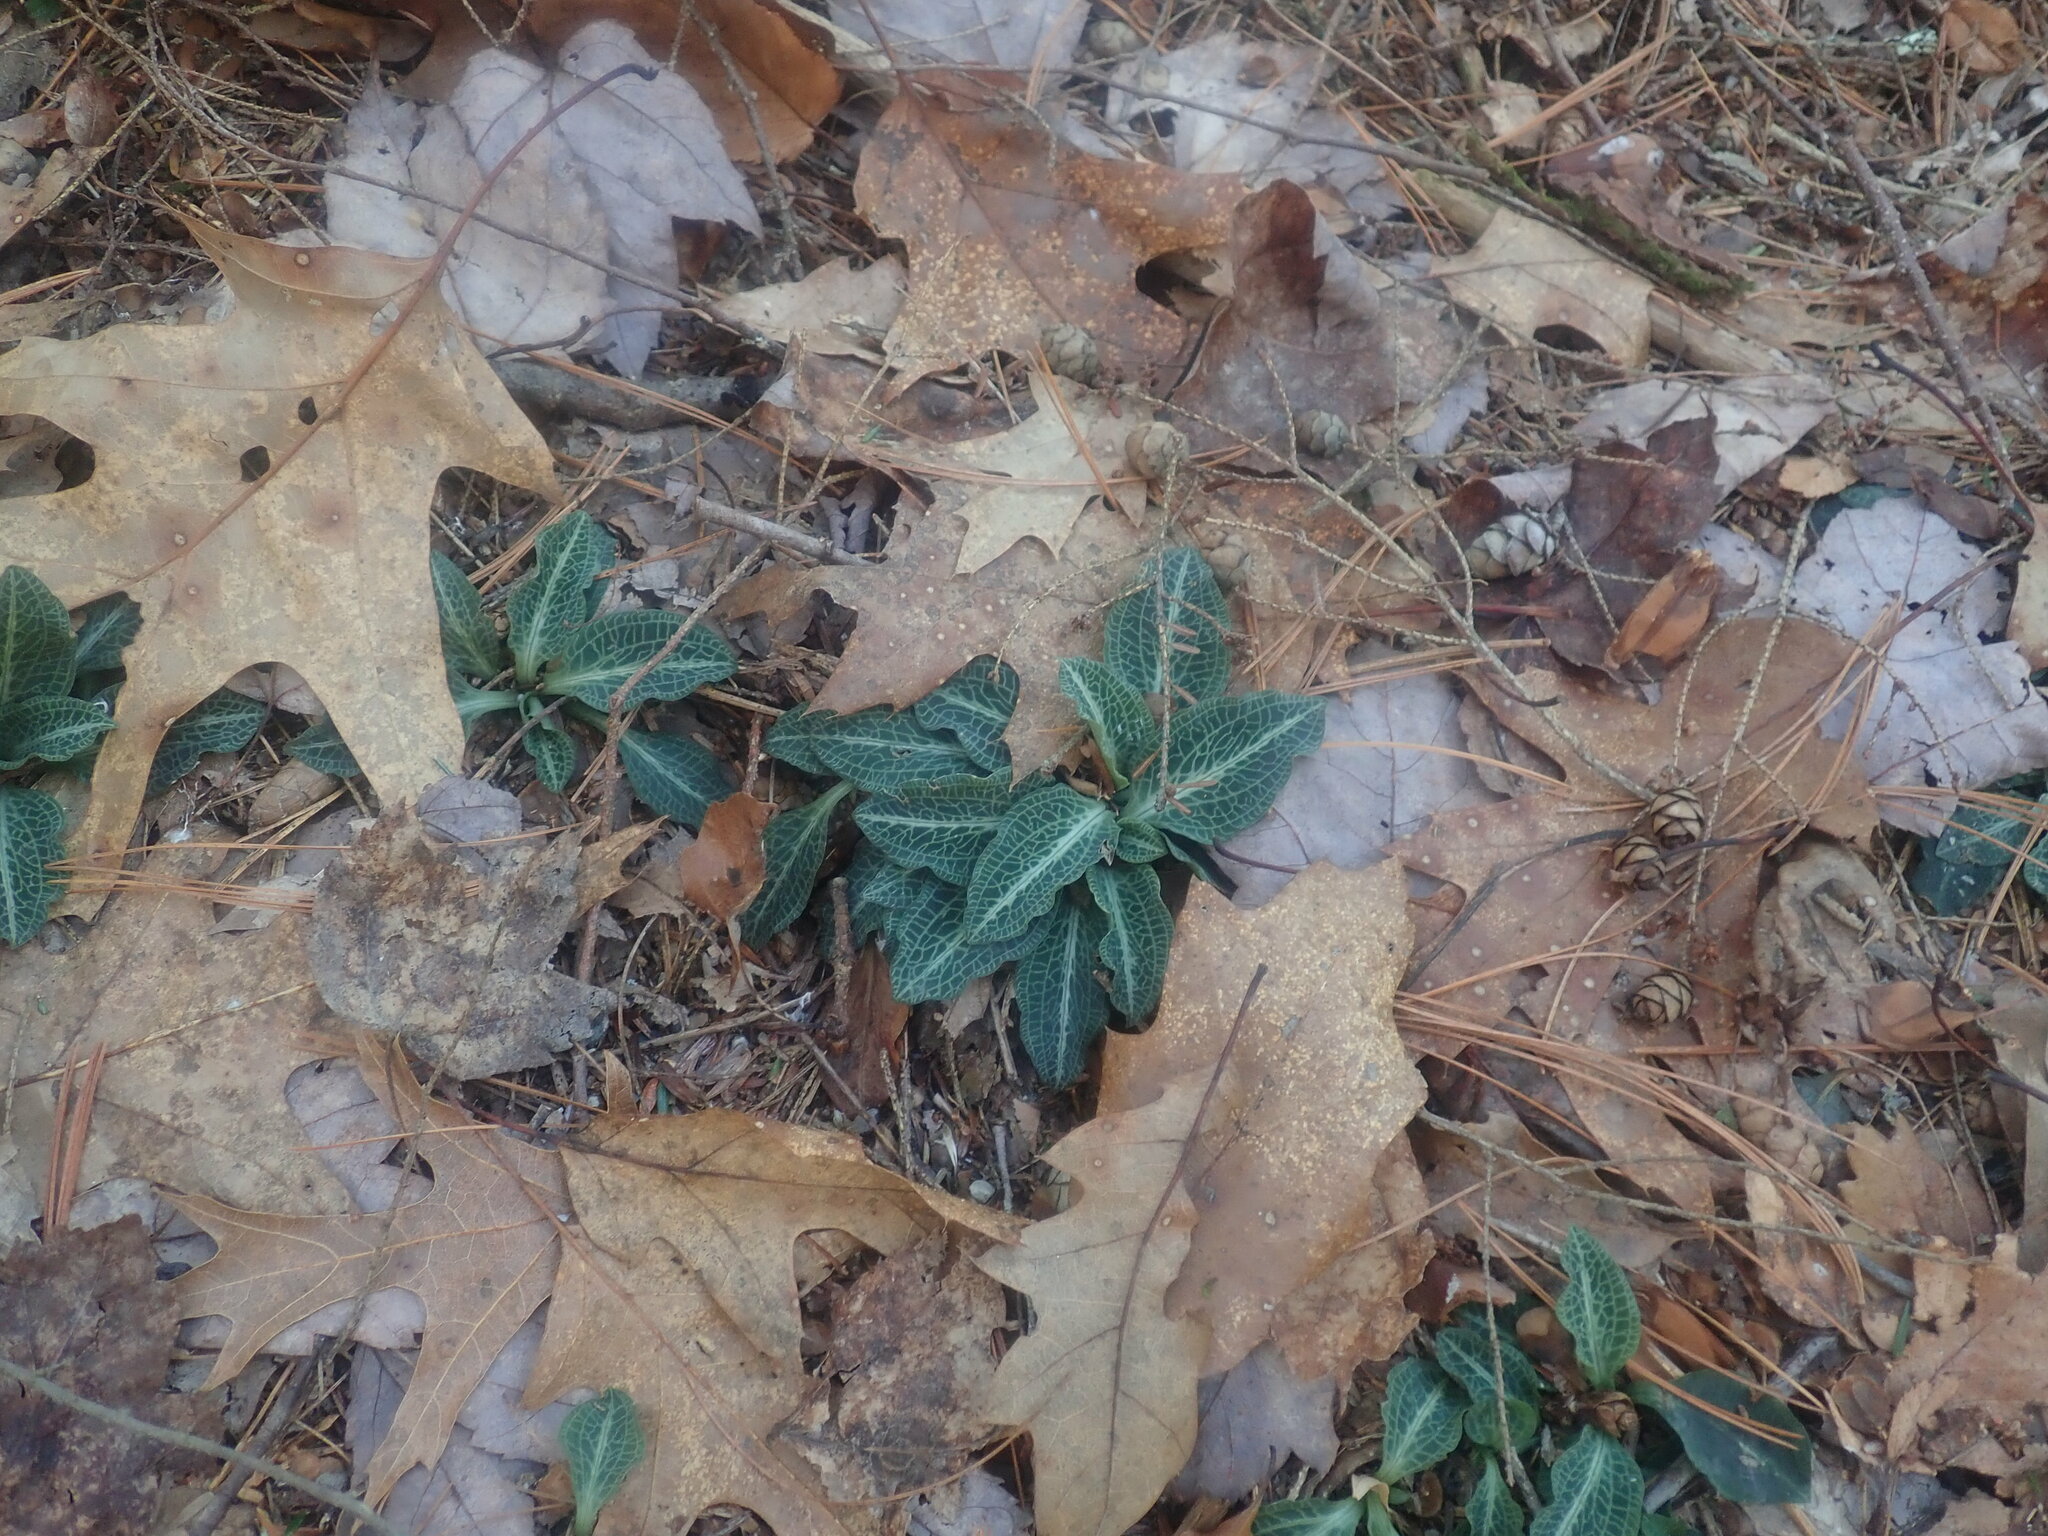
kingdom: Plantae
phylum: Tracheophyta
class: Liliopsida
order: Asparagales
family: Orchidaceae
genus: Goodyera
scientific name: Goodyera pubescens
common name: Downy rattlesnake-plantain
